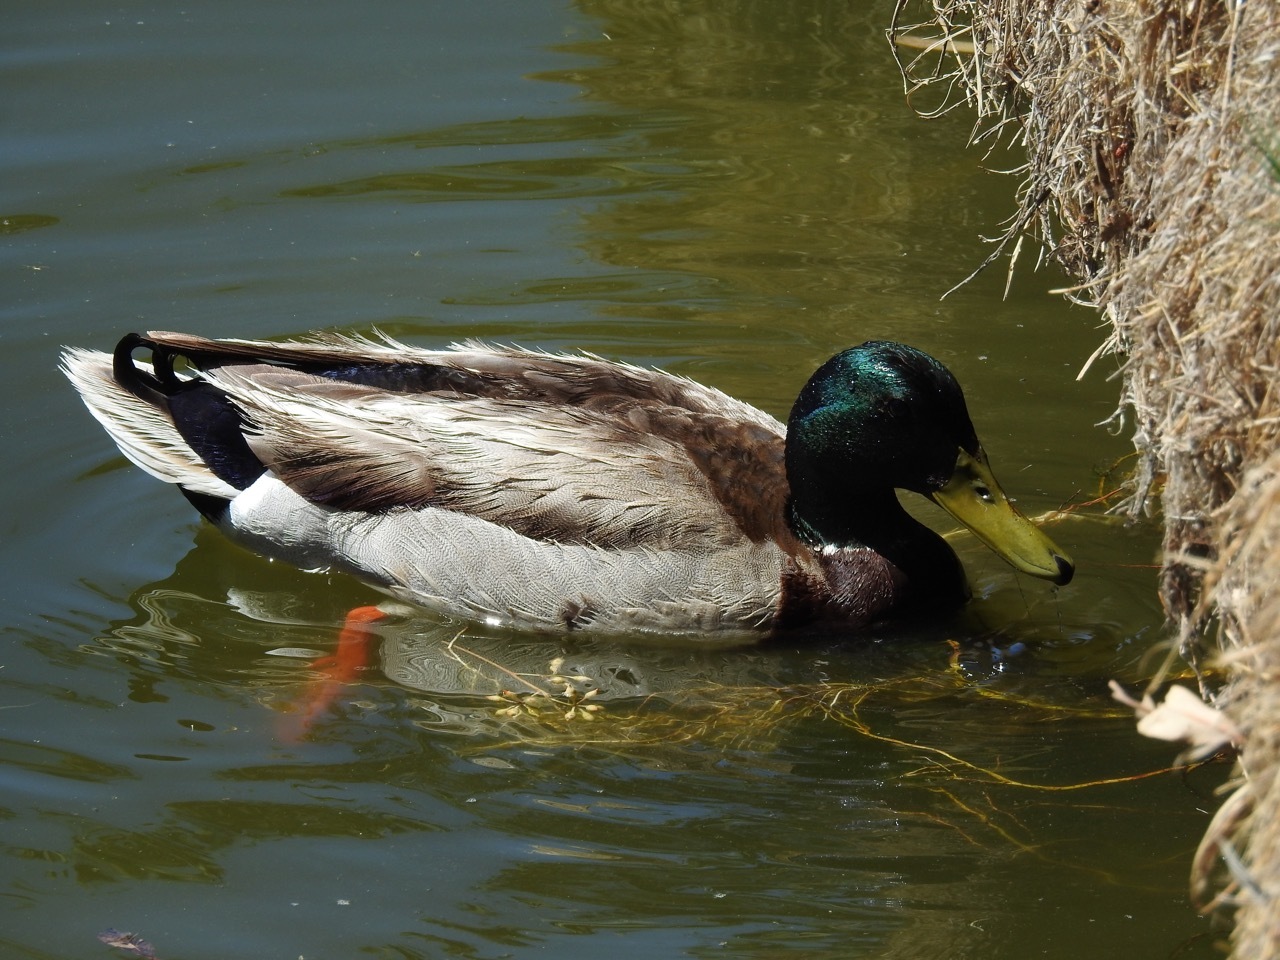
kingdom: Animalia
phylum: Chordata
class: Aves
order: Anseriformes
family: Anatidae
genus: Anas
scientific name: Anas platyrhynchos
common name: Mallard
